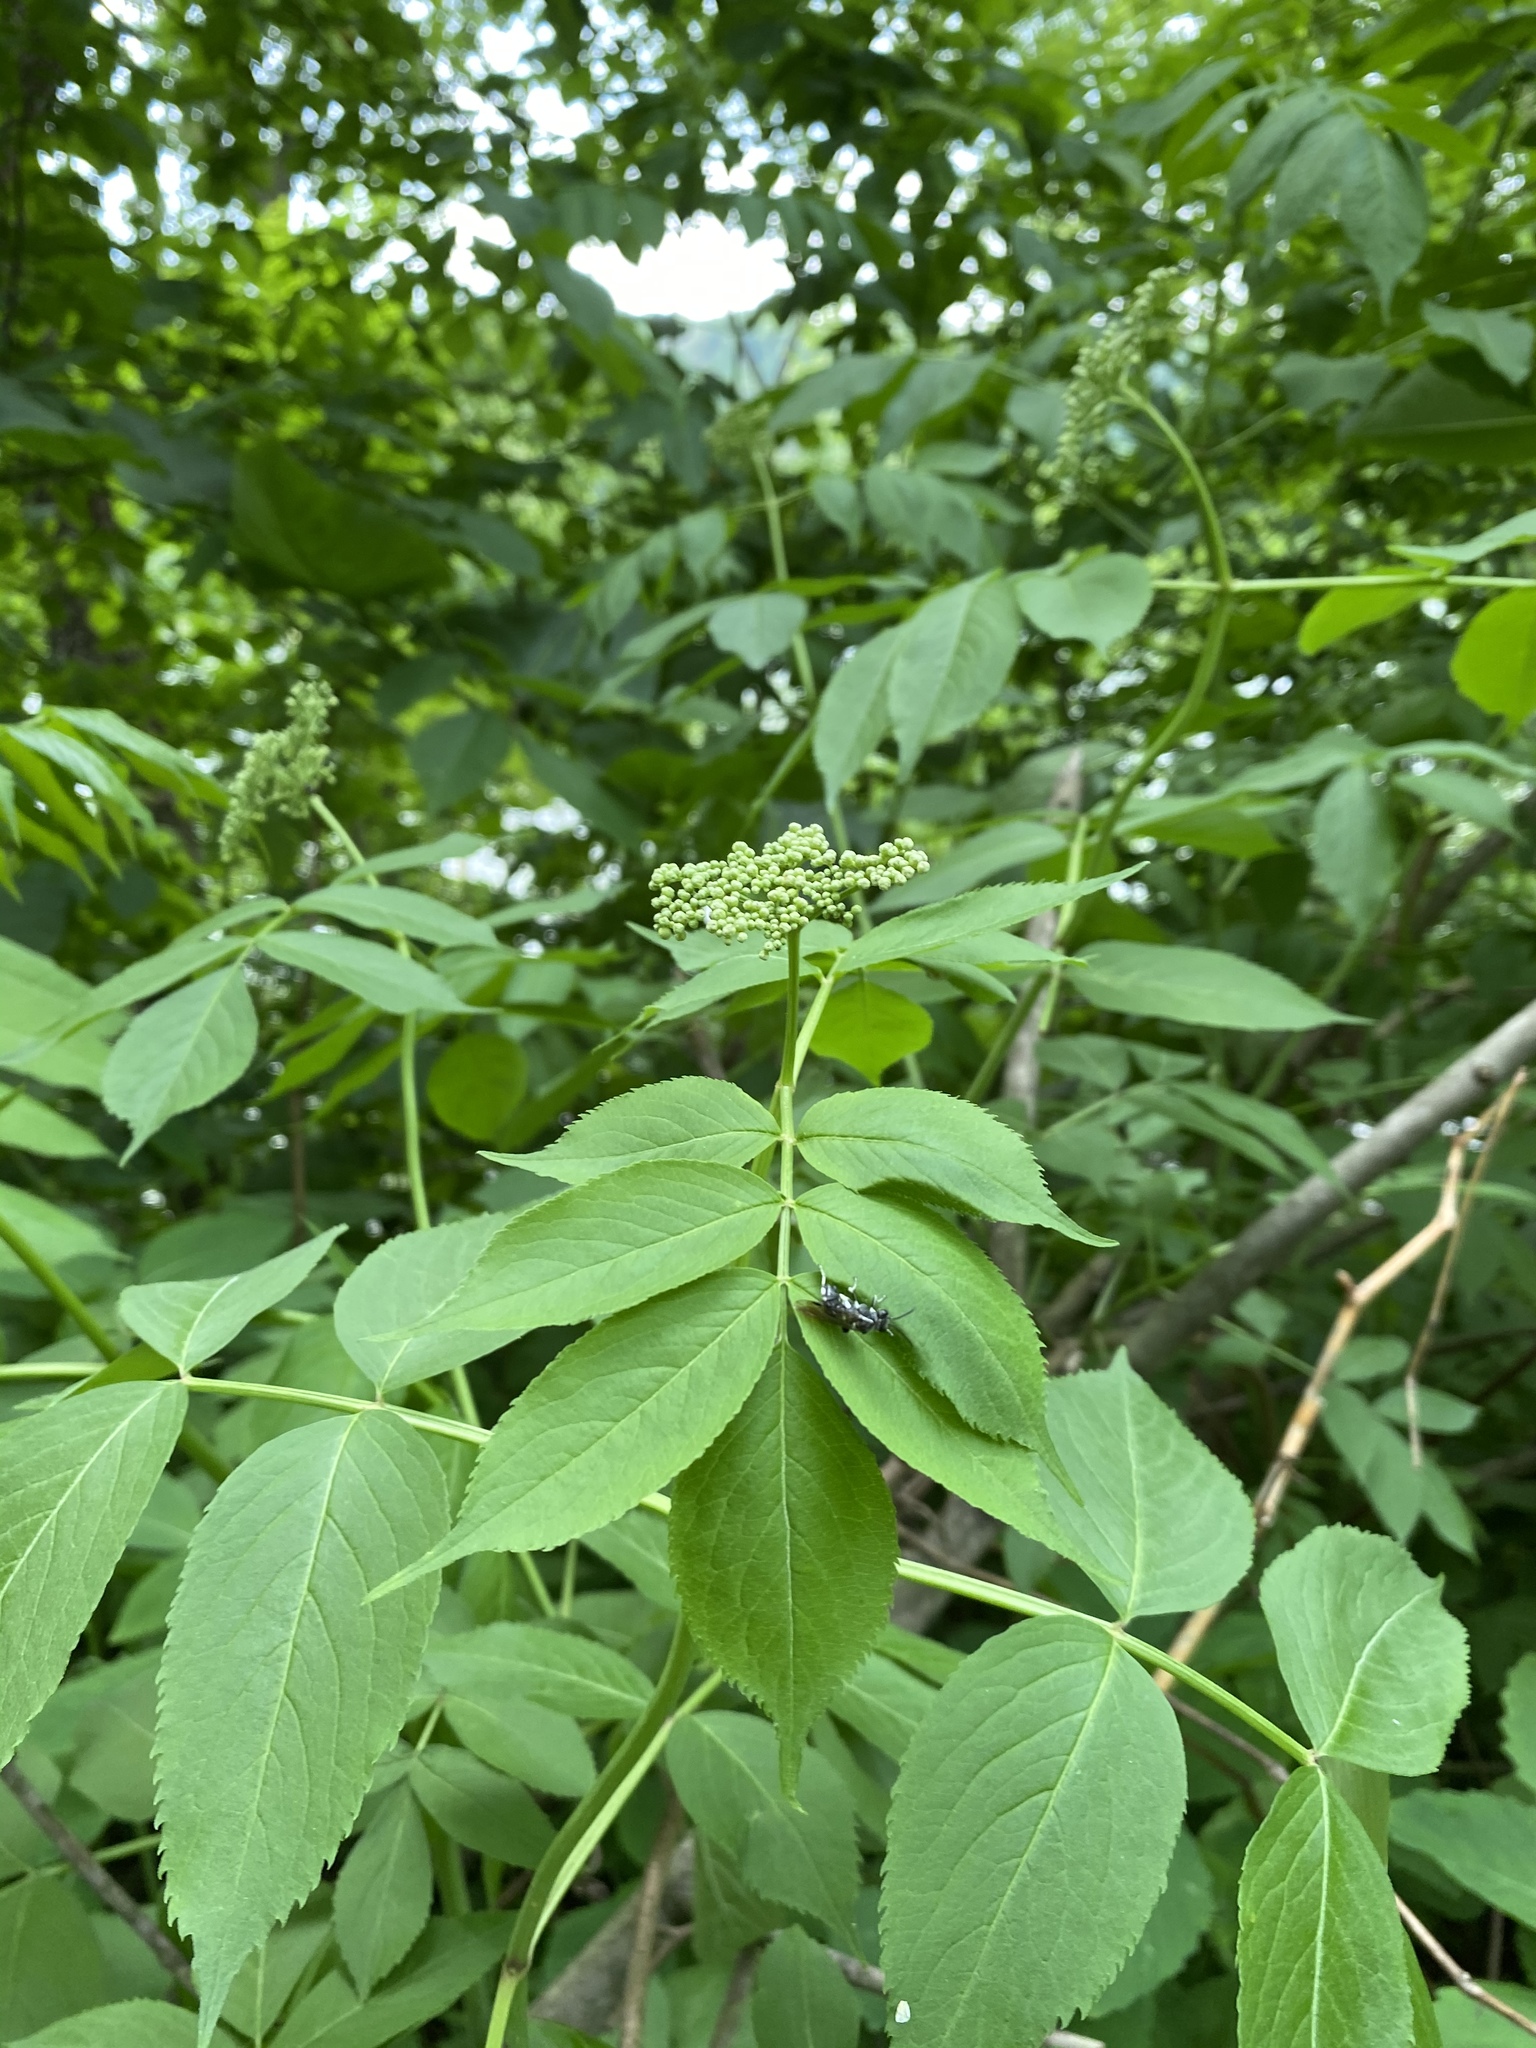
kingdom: Plantae
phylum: Tracheophyta
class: Magnoliopsida
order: Dipsacales
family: Viburnaceae
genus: Sambucus
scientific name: Sambucus canadensis
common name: American elder
